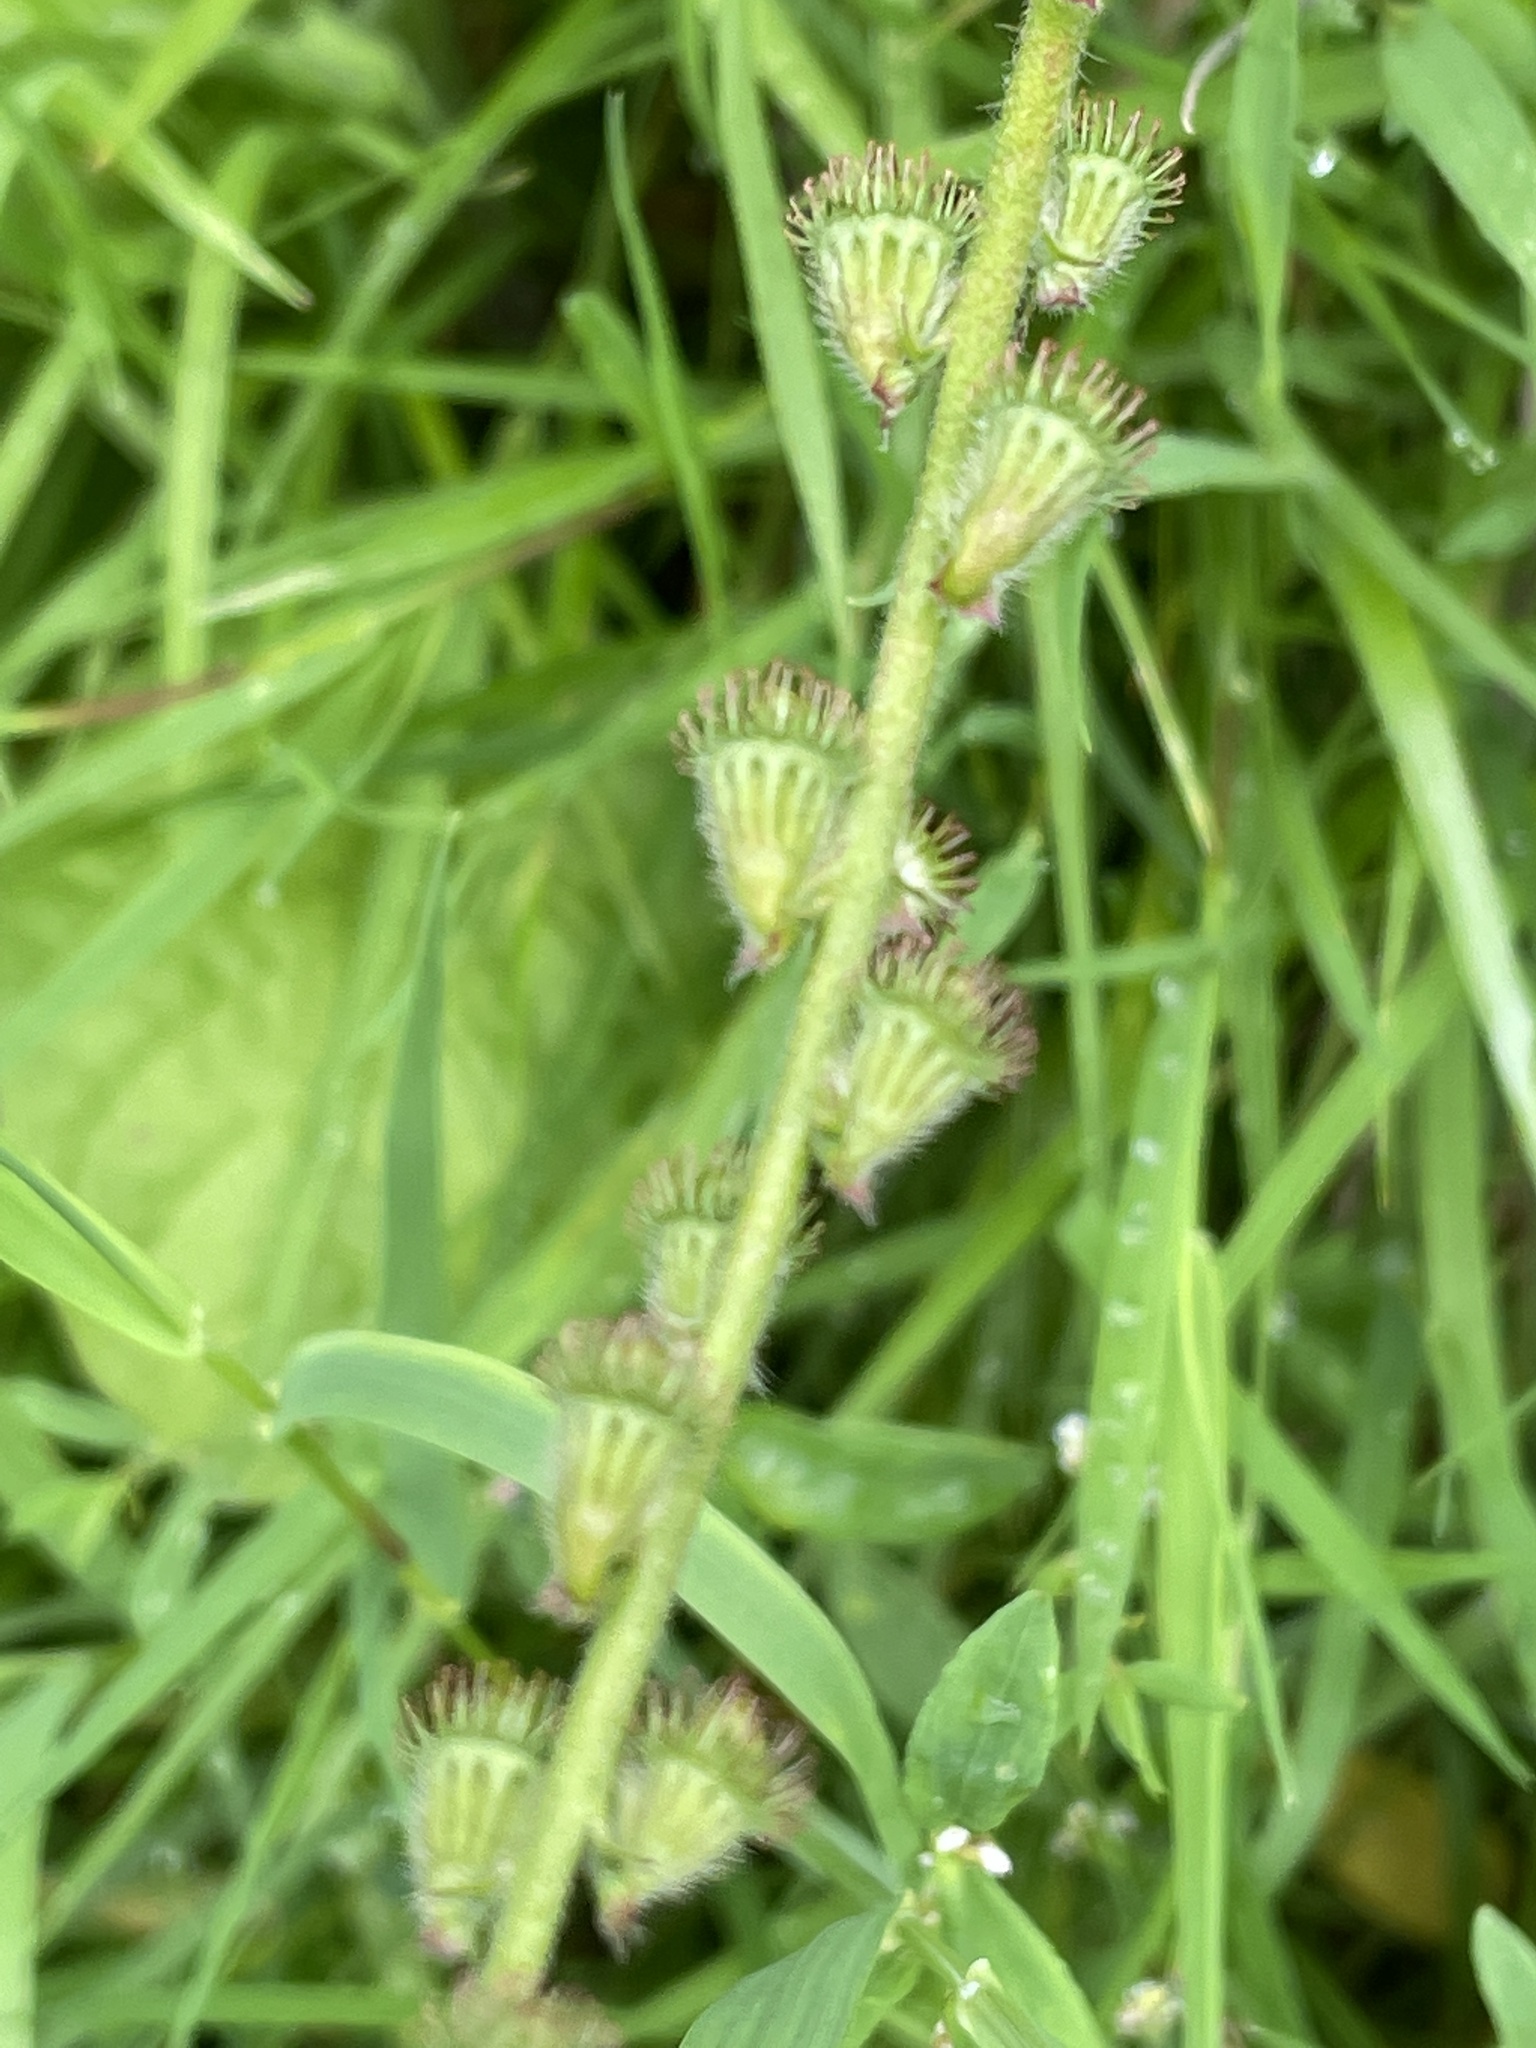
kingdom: Plantae
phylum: Tracheophyta
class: Magnoliopsida
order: Rosales
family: Rosaceae
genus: Agrimonia
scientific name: Agrimonia eupatoria
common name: Agrimony
